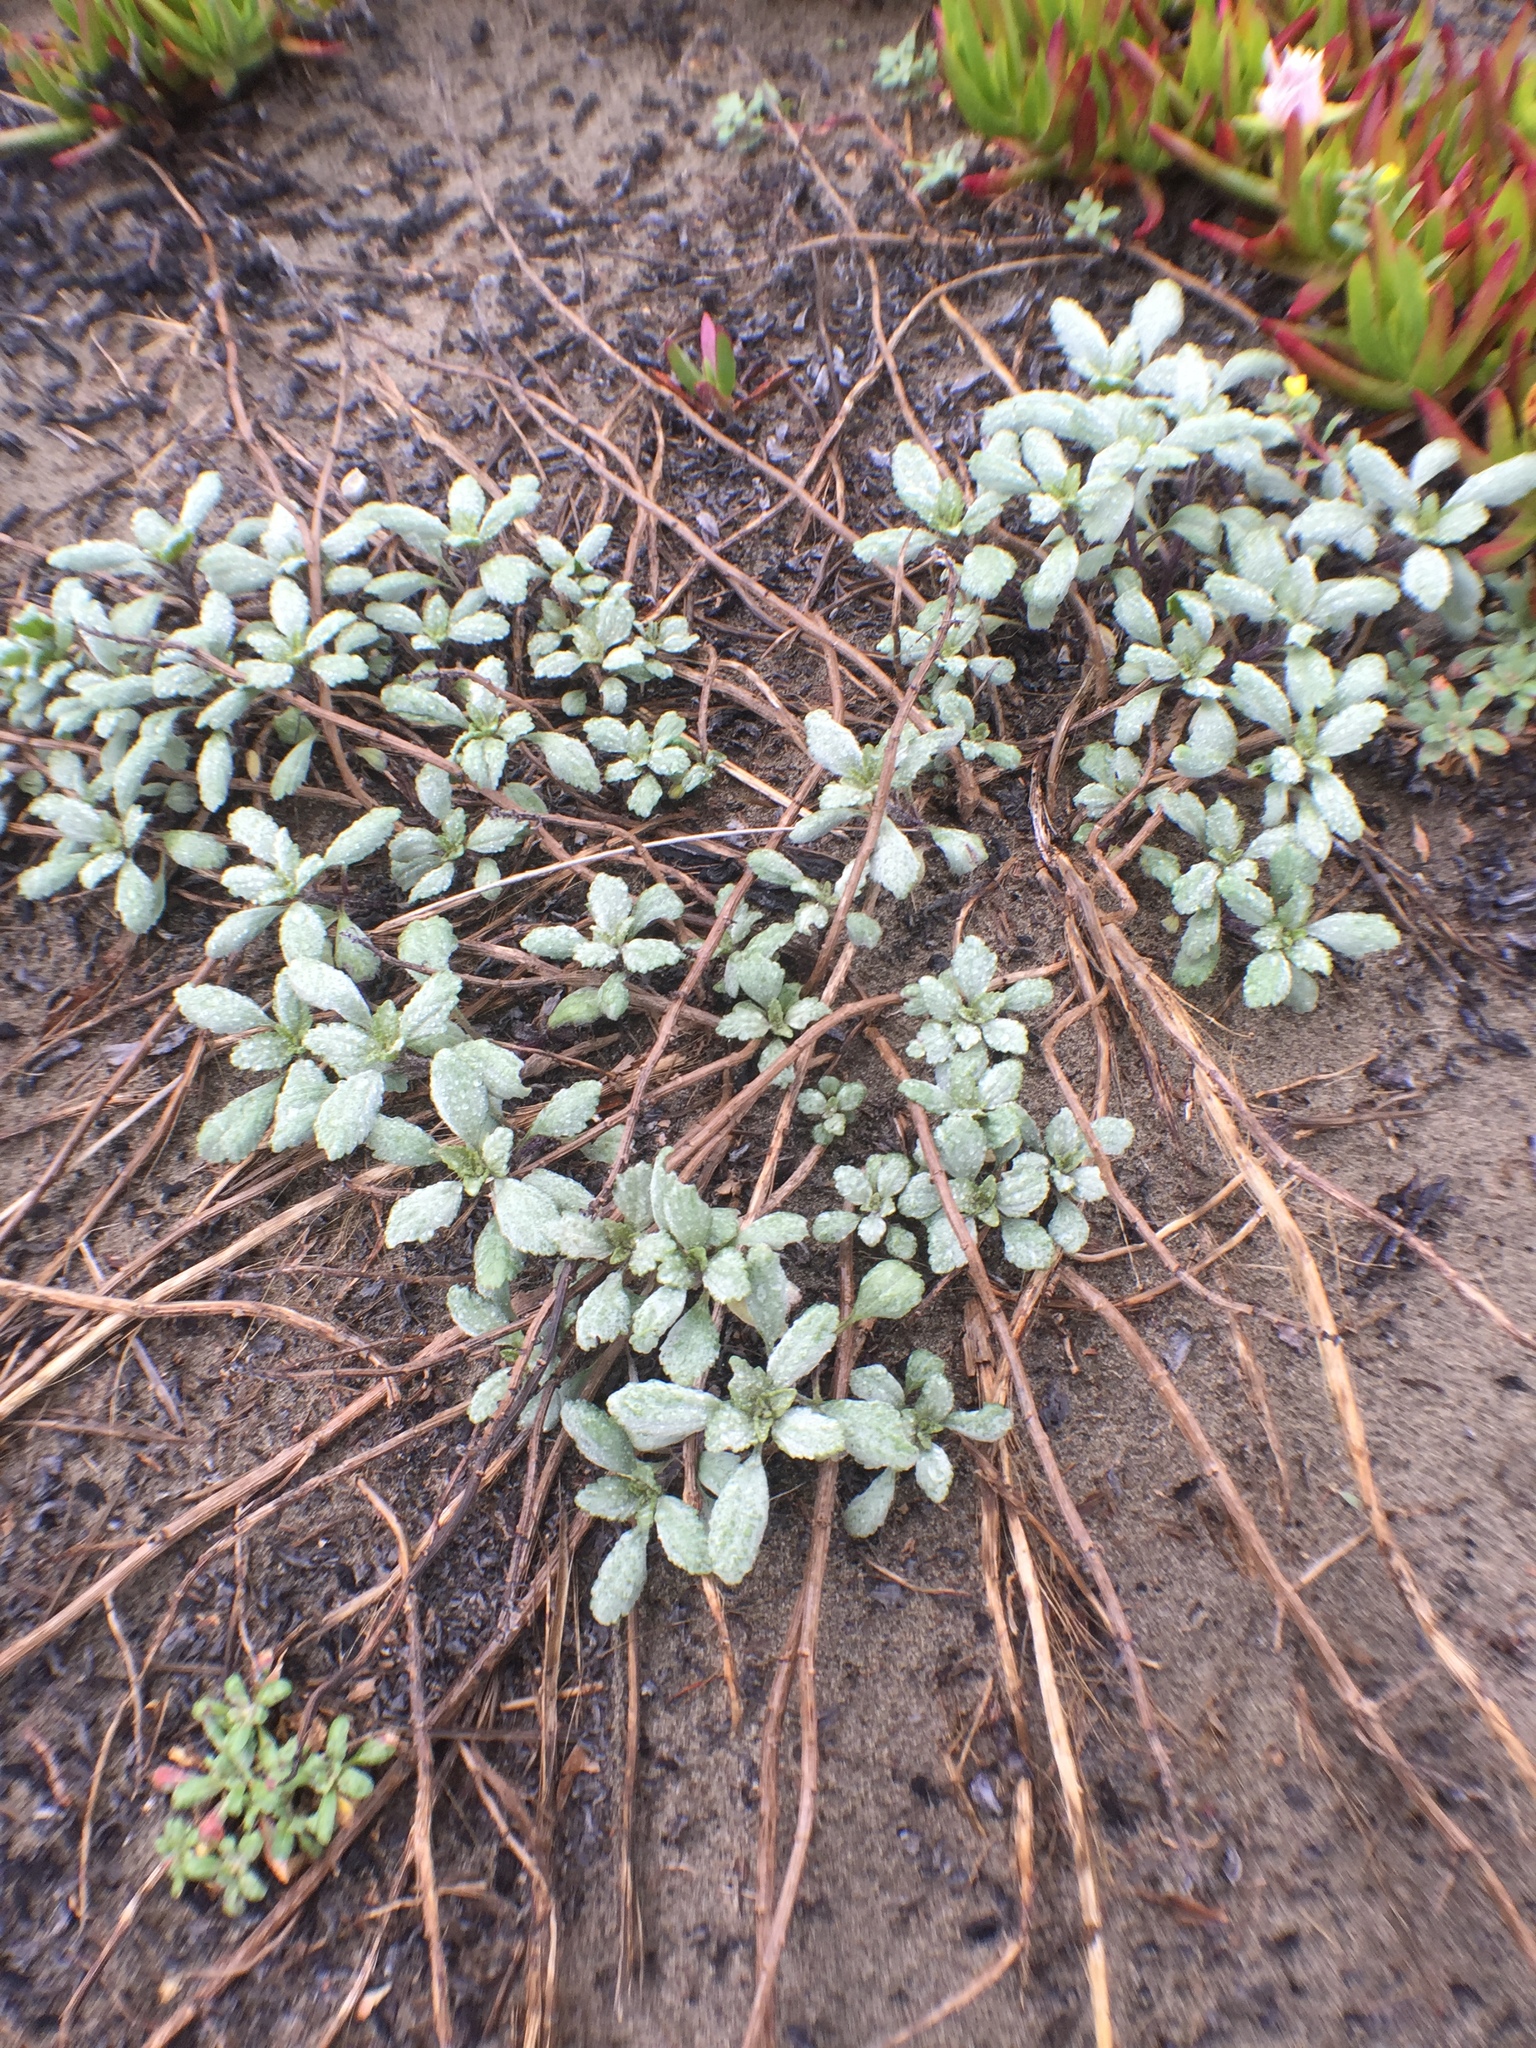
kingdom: Plantae
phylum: Tracheophyta
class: Magnoliopsida
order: Asterales
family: Asteraceae
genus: Ambrosia
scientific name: Ambrosia chamissonis
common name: Beachbur
